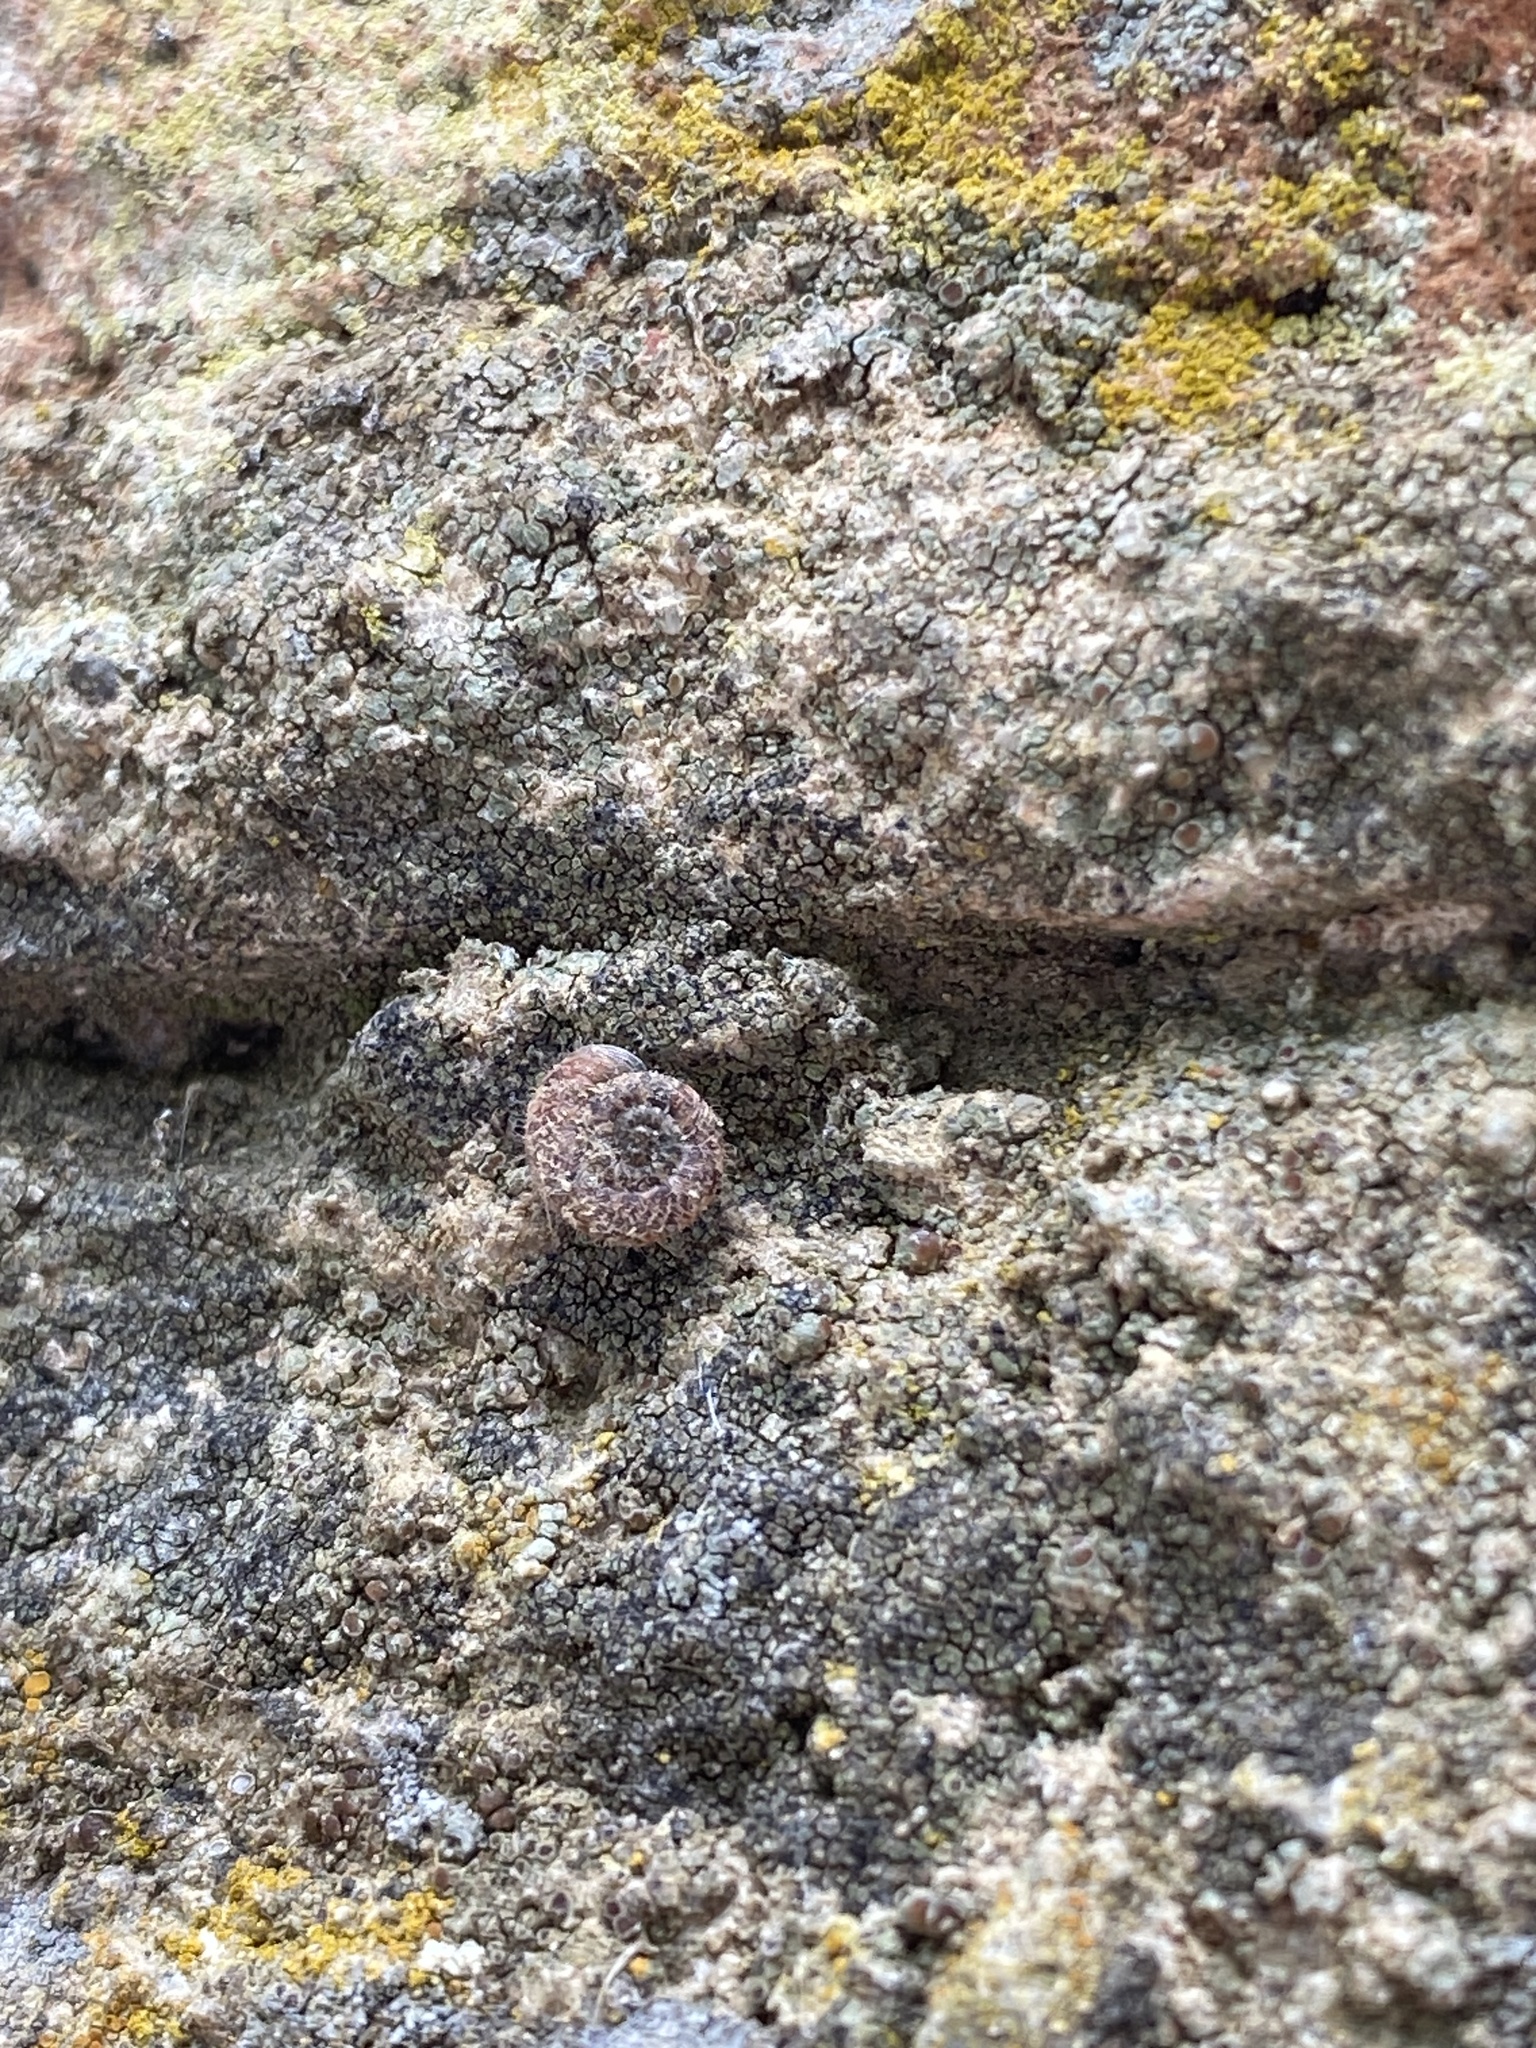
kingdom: Animalia
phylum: Mollusca
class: Gastropoda
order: Stylommatophora
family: Geomitridae
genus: Xerotricha
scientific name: Xerotricha conspurcata
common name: Snail
